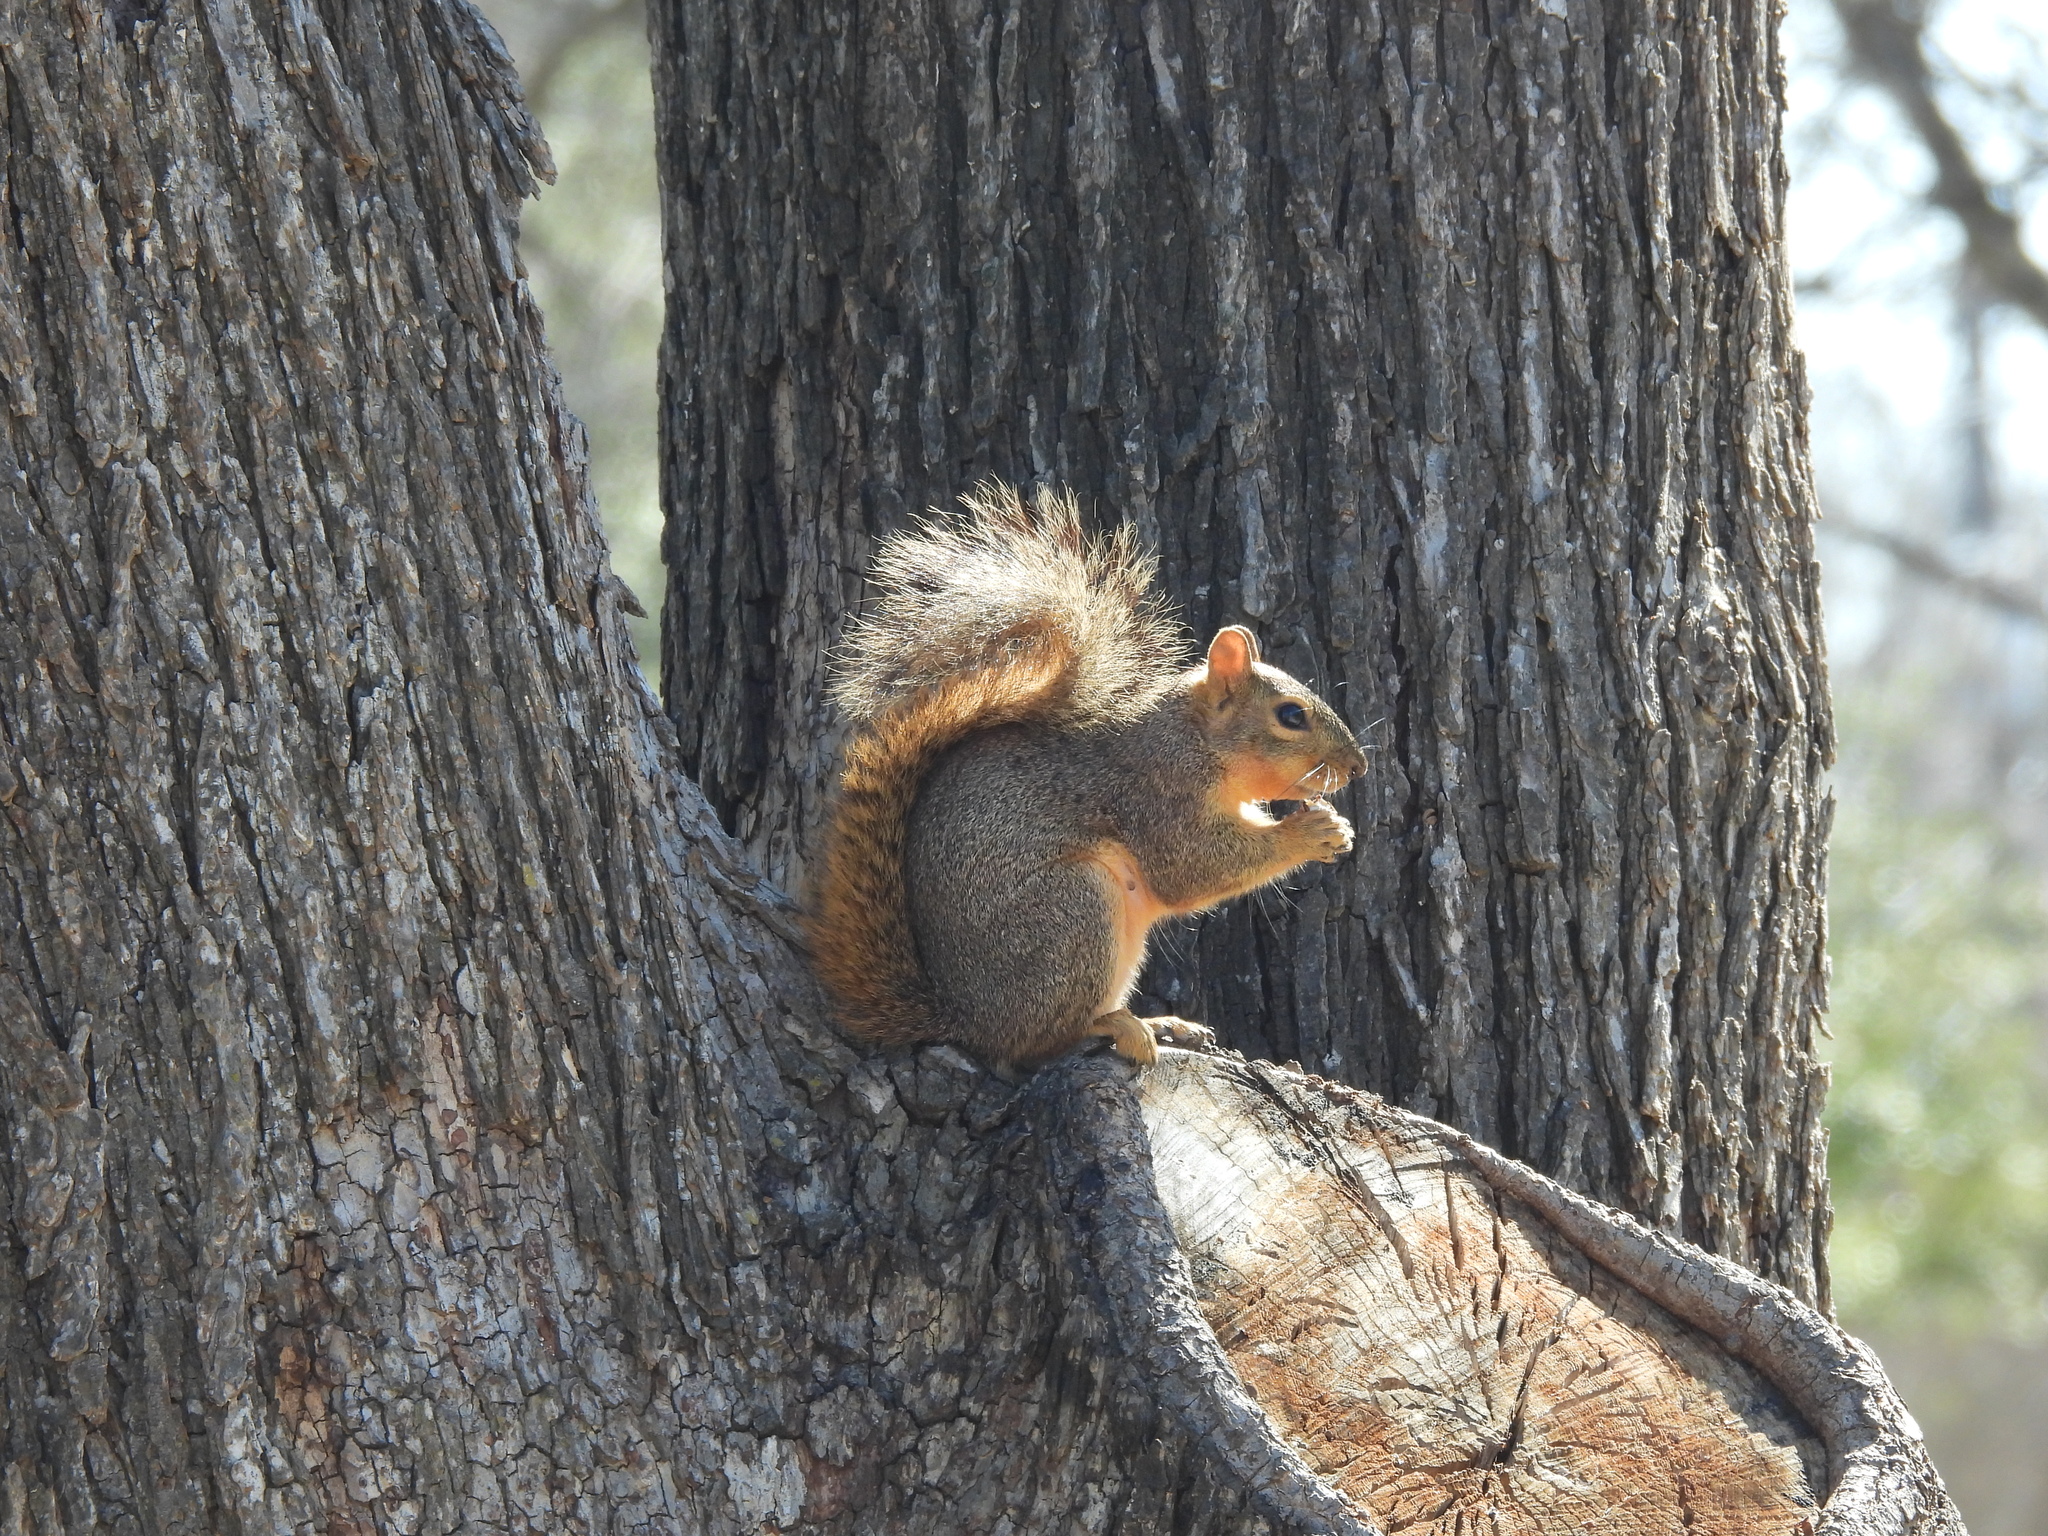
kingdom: Animalia
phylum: Chordata
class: Mammalia
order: Rodentia
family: Sciuridae
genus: Sciurus
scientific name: Sciurus niger
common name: Fox squirrel
